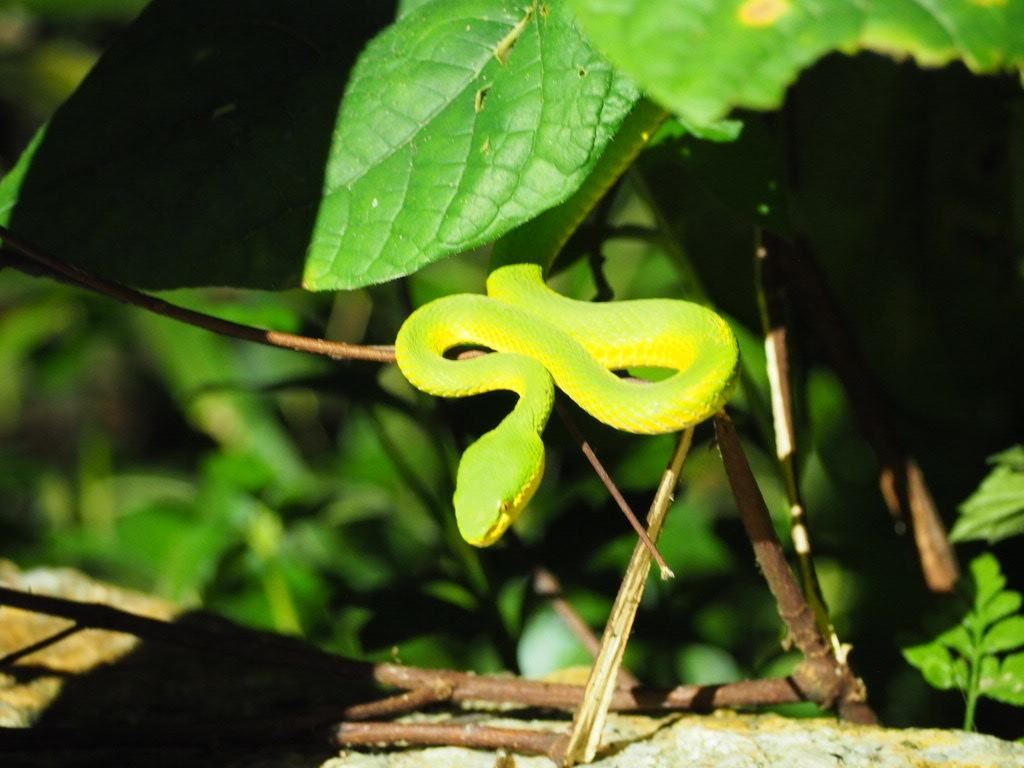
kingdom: Animalia
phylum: Chordata
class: Squamata
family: Viperidae
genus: Trimeresurus
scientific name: Trimeresurus albolabris
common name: White-lipped pitviper
